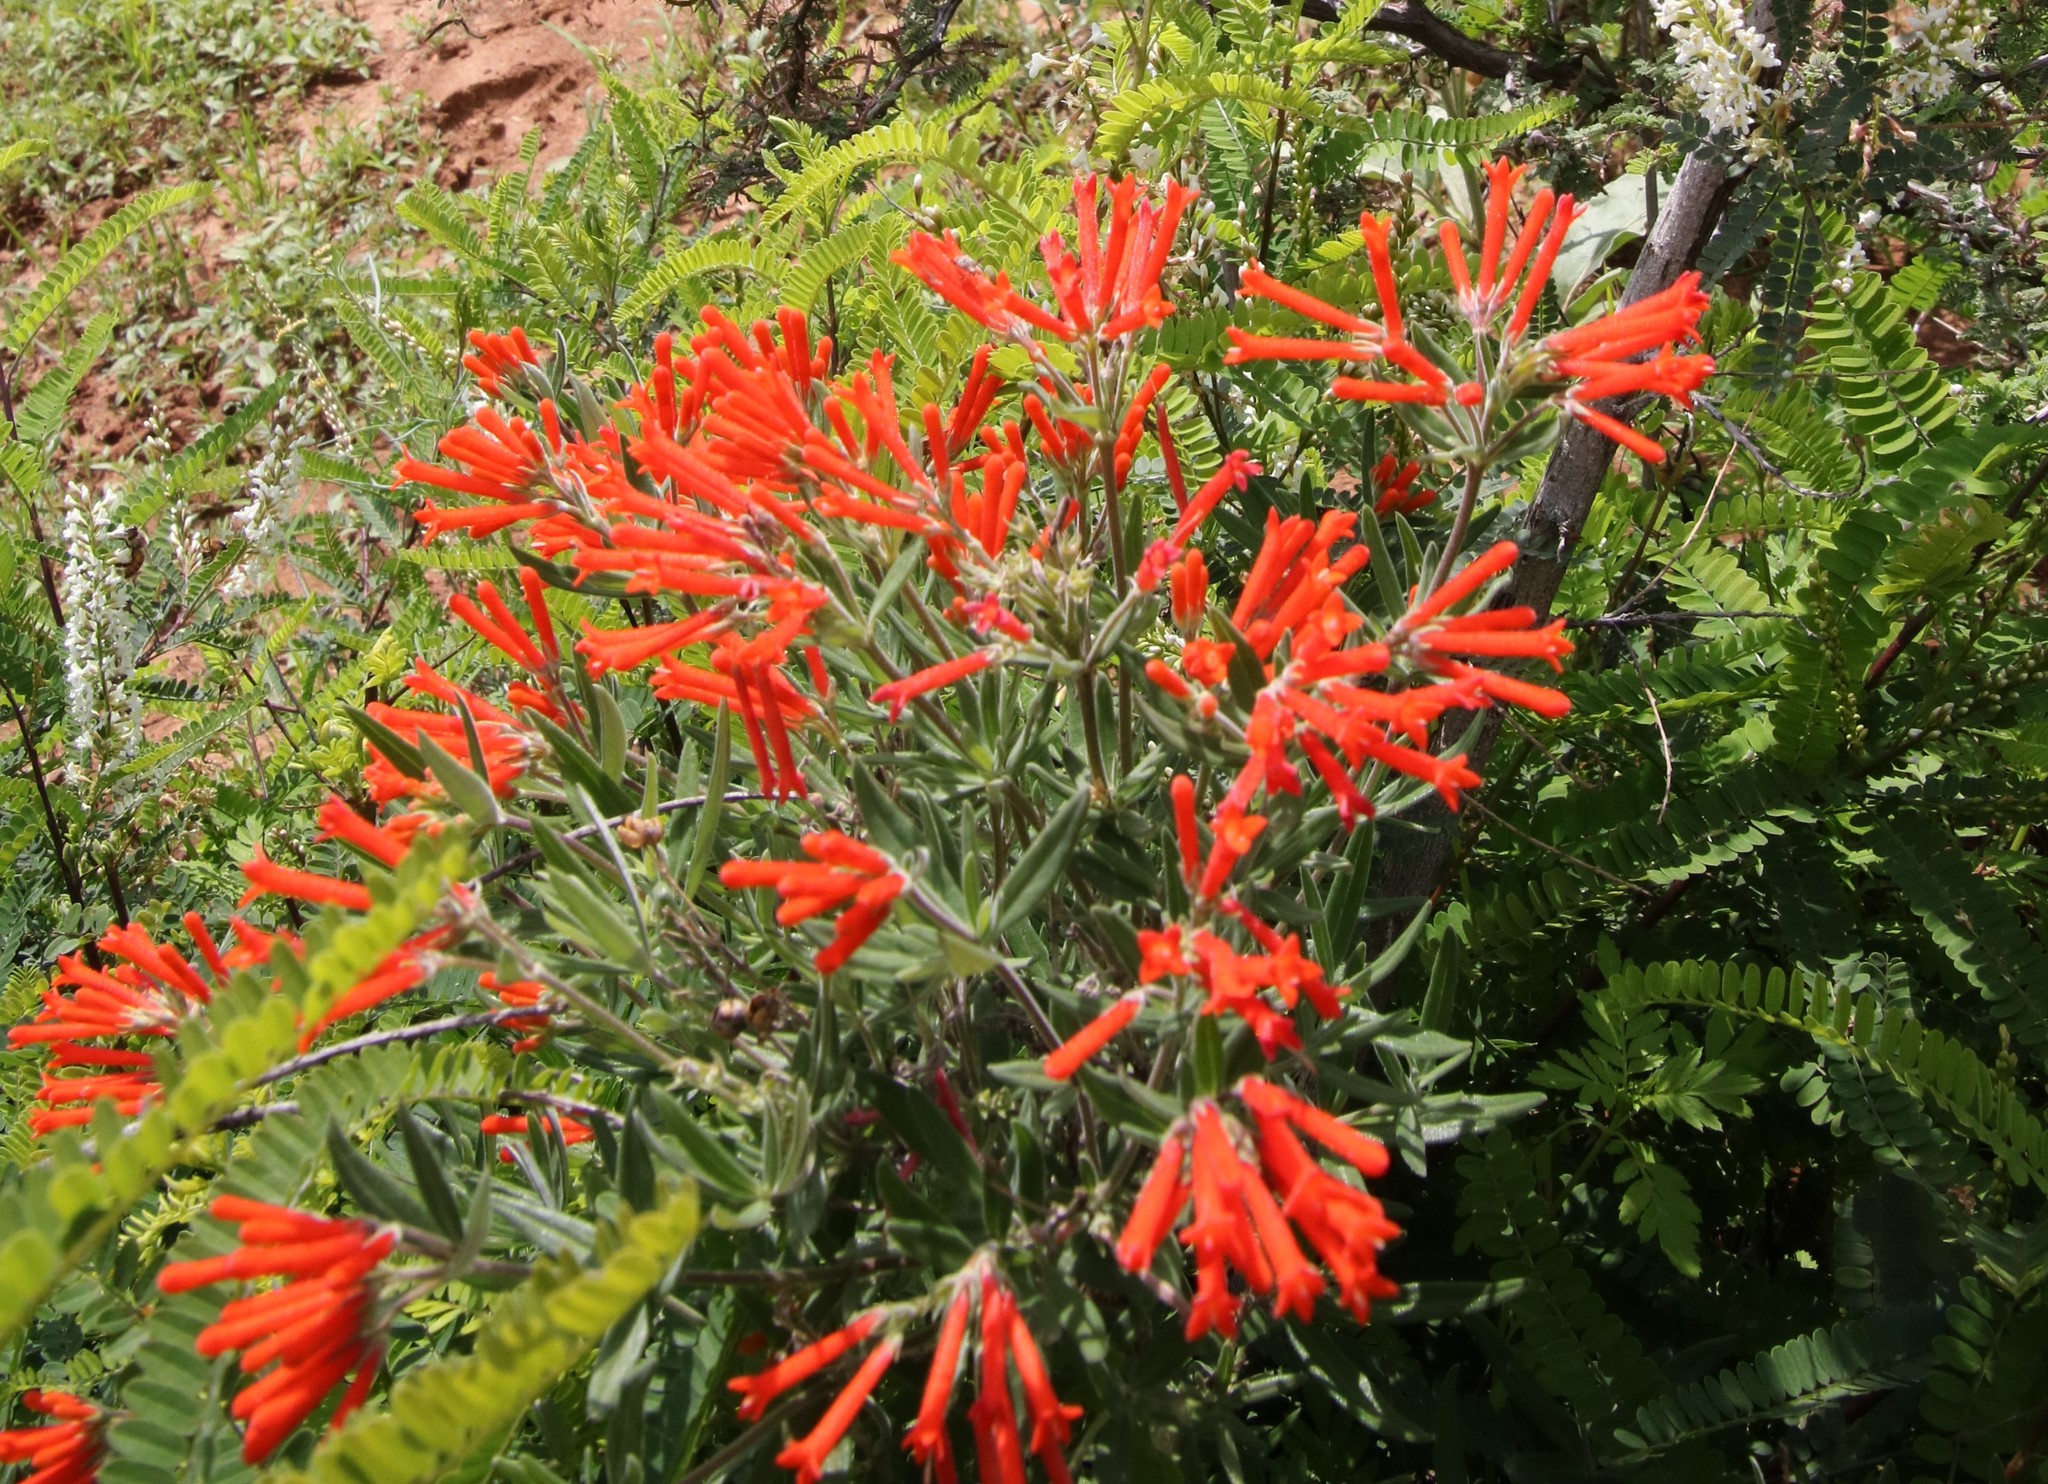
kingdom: Plantae
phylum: Tracheophyta
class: Magnoliopsida
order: Gentianales
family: Rubiaceae
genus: Bouvardia
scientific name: Bouvardia ternifolia
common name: Scarlet bouvardia
